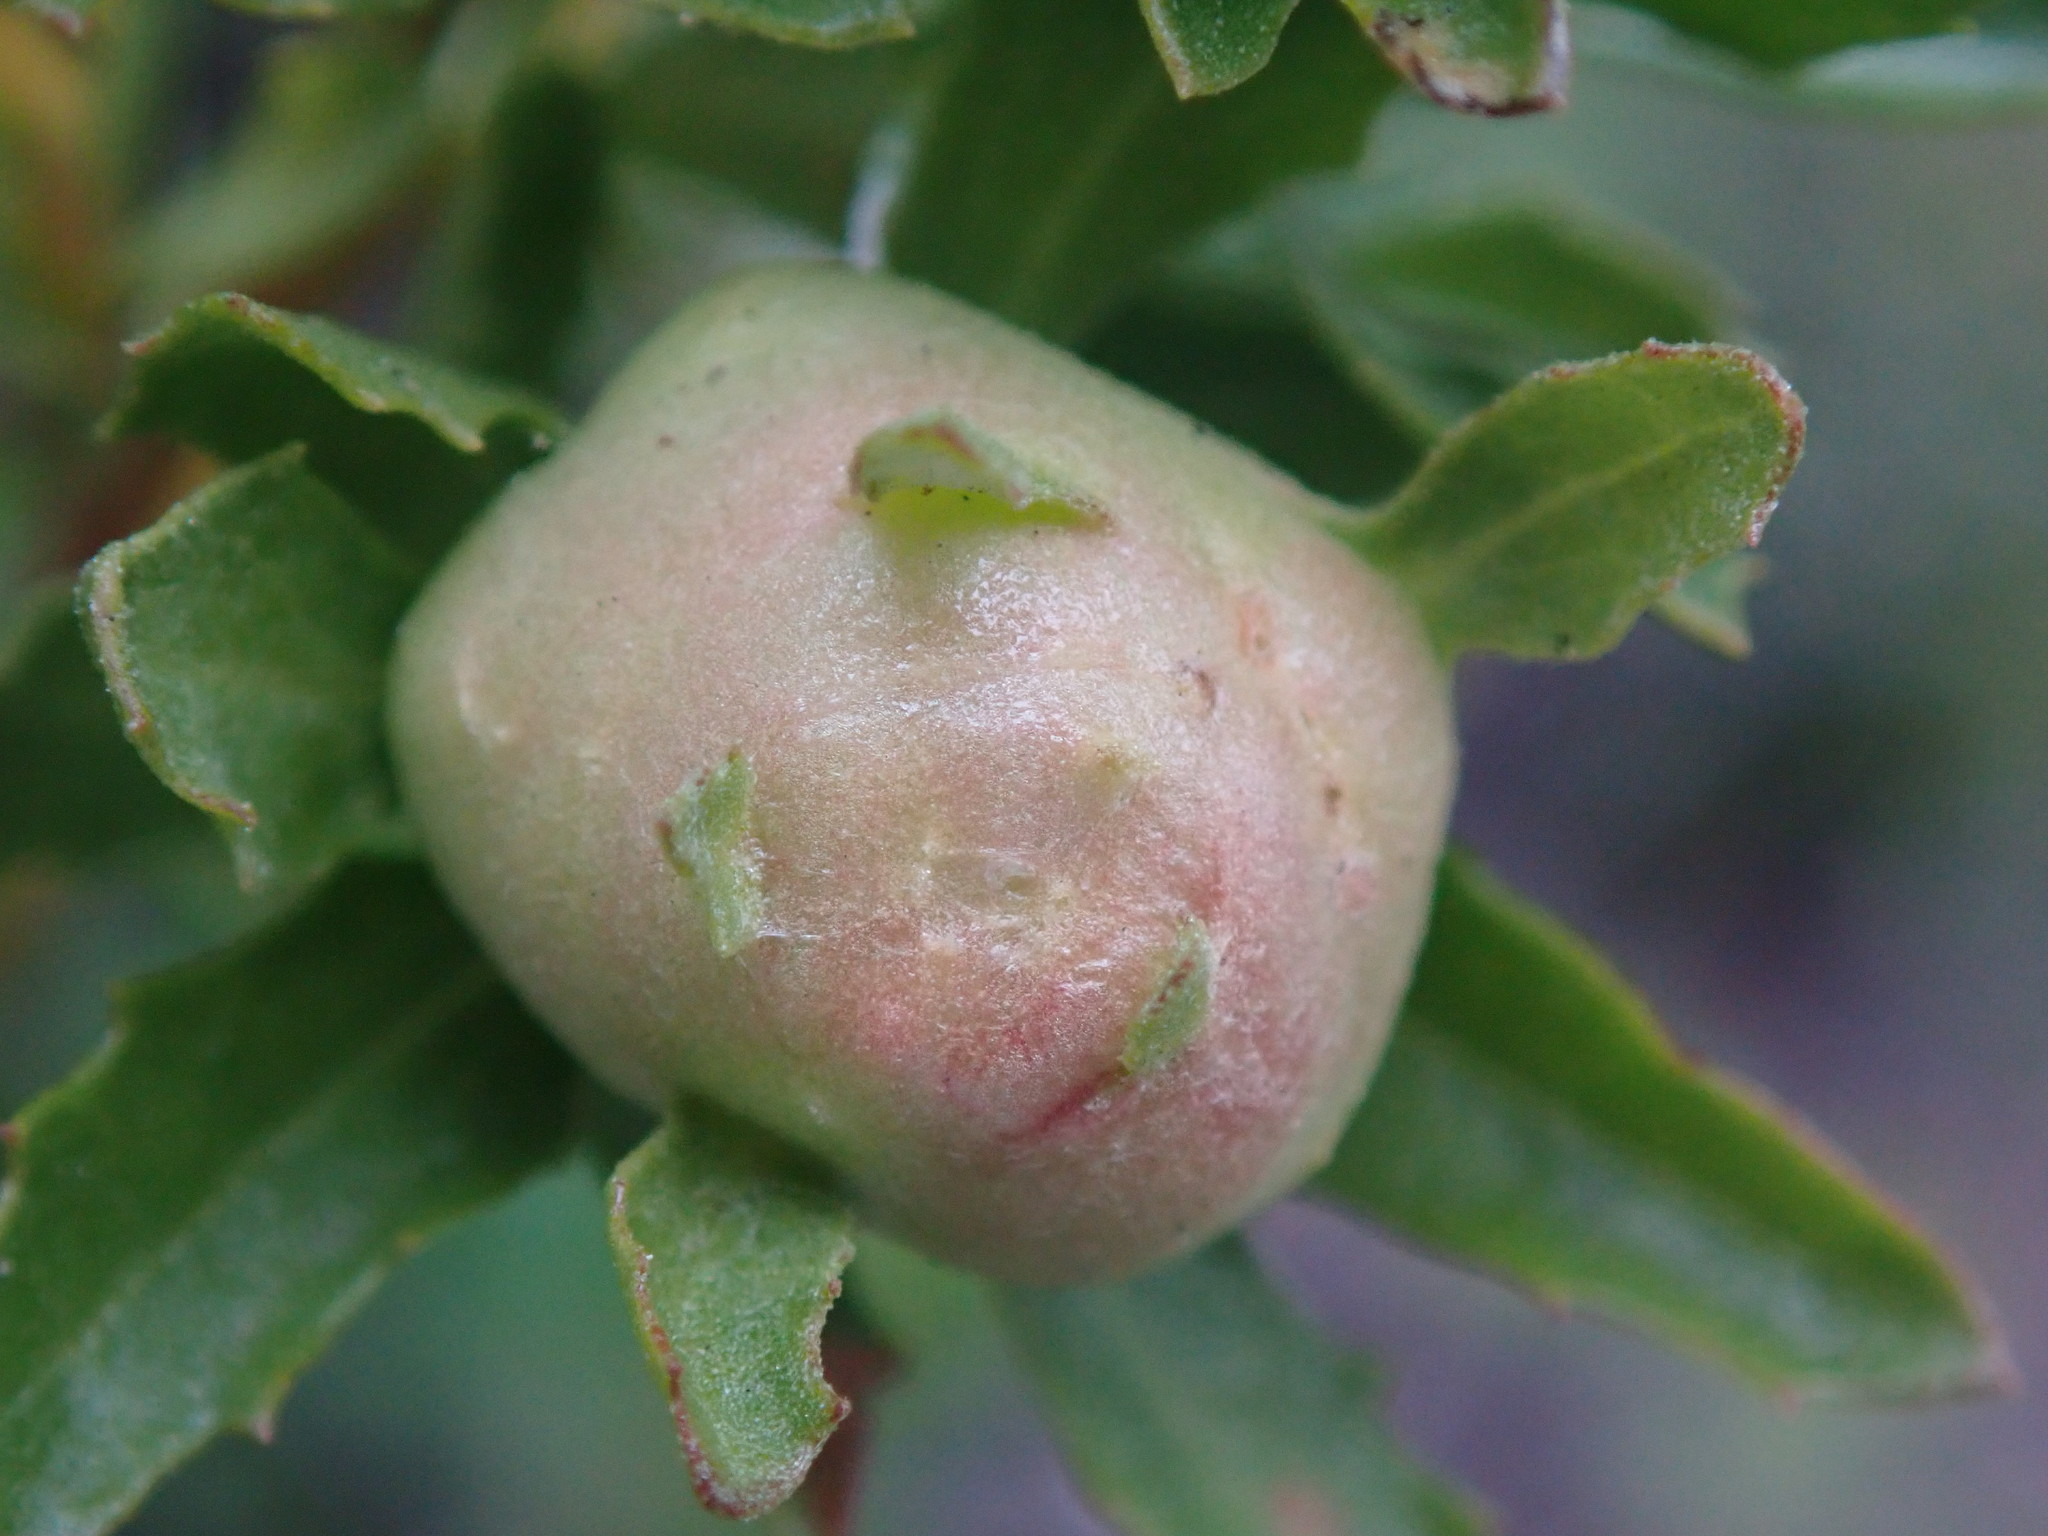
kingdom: Animalia
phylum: Arthropoda
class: Insecta
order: Diptera
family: Cecidomyiidae
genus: Rhopalomyia
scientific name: Rhopalomyia californica
